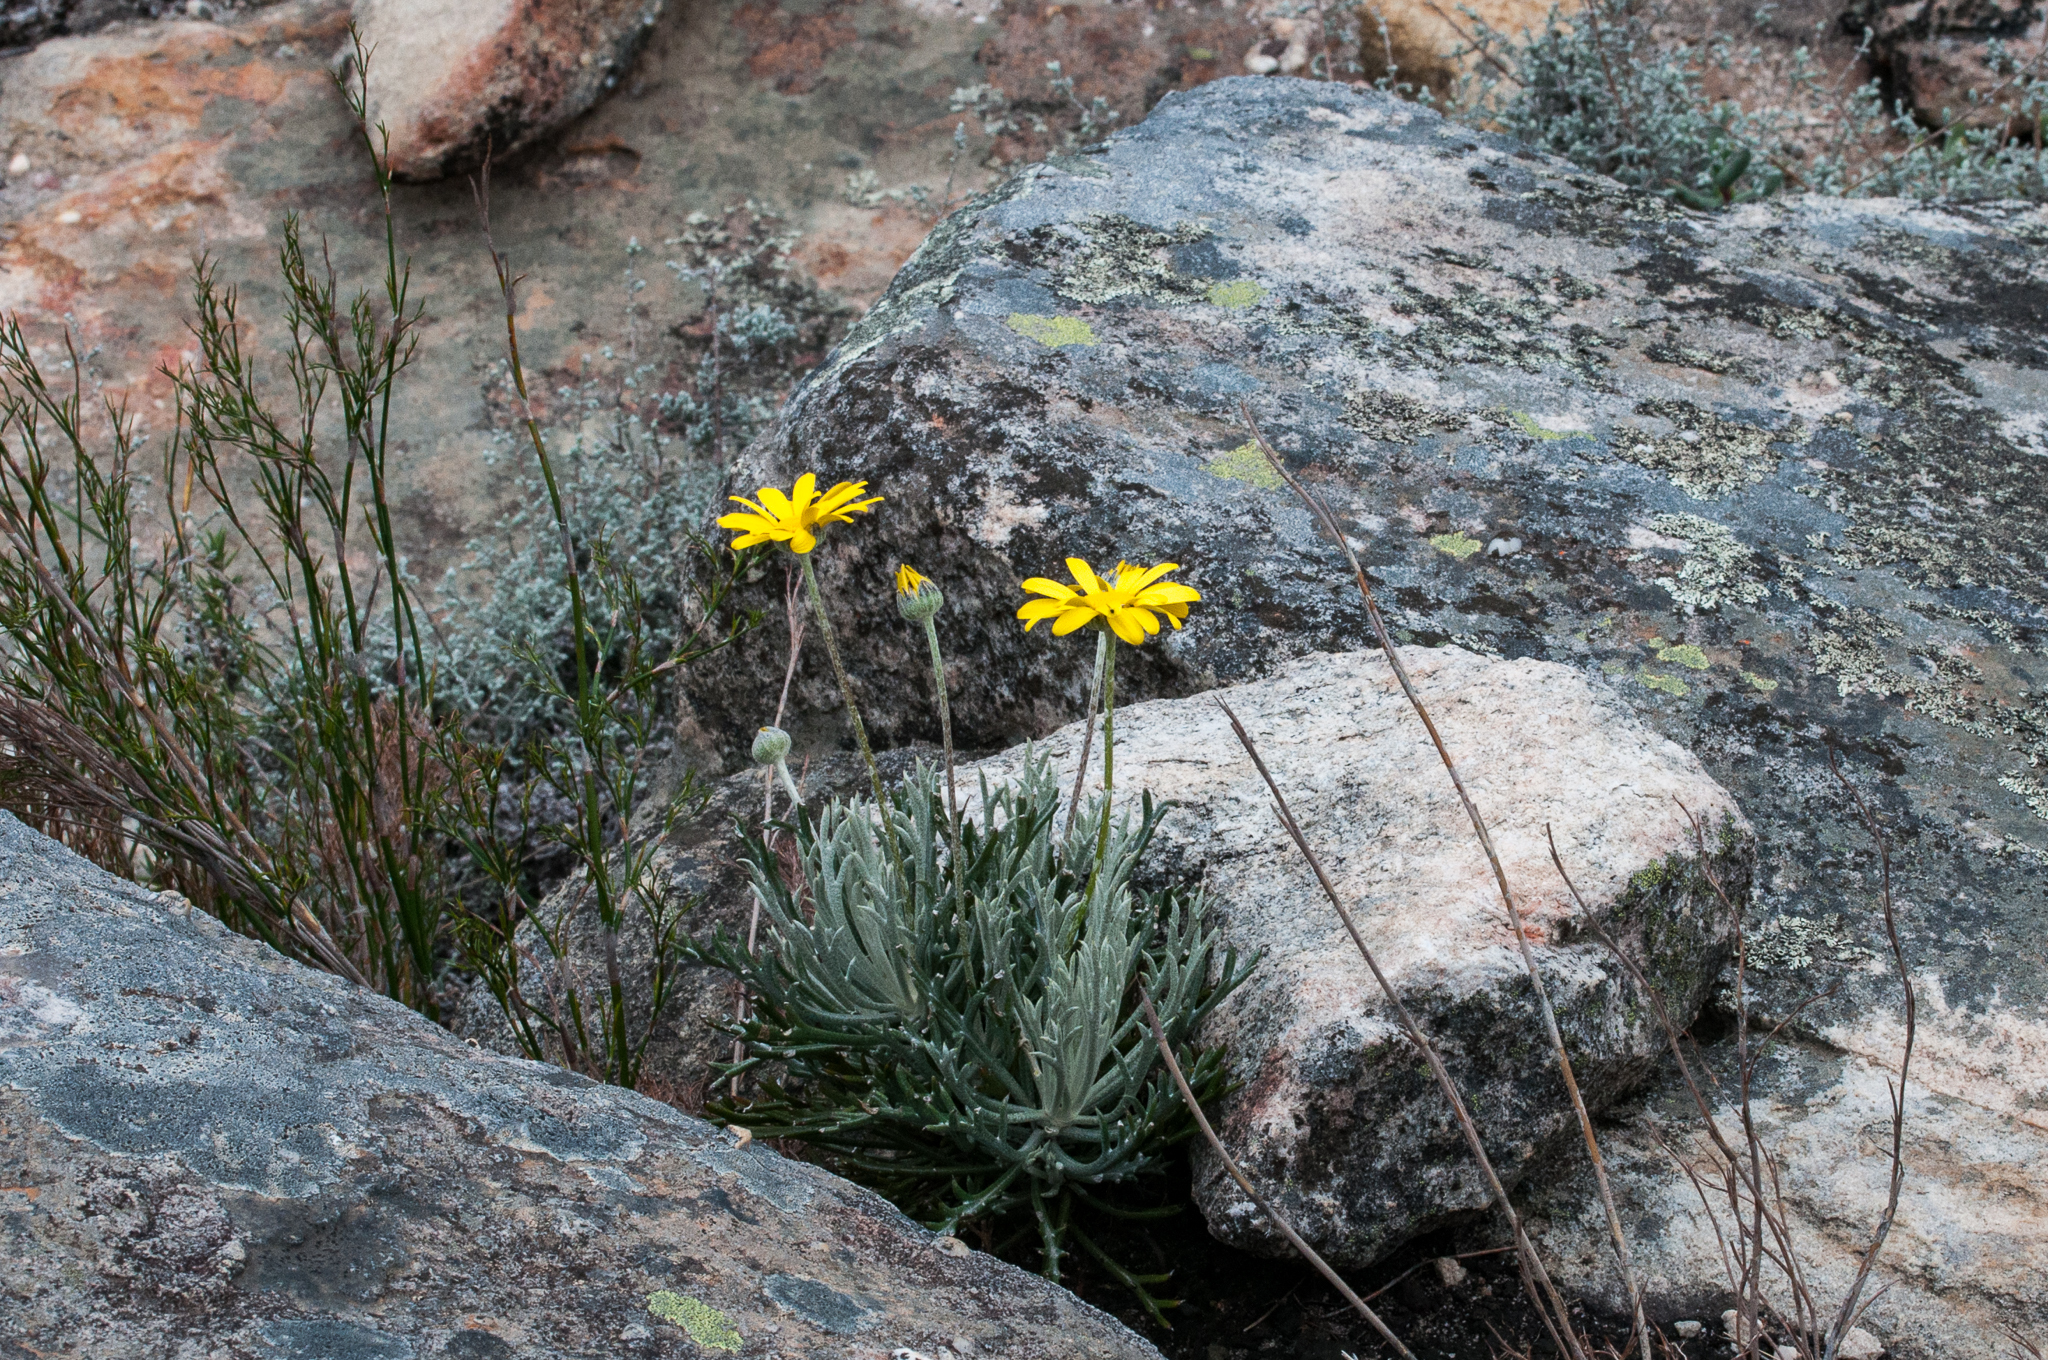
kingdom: Plantae
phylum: Tracheophyta
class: Magnoliopsida
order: Asterales
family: Asteraceae
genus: Euryops
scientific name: Euryops othonnoides
